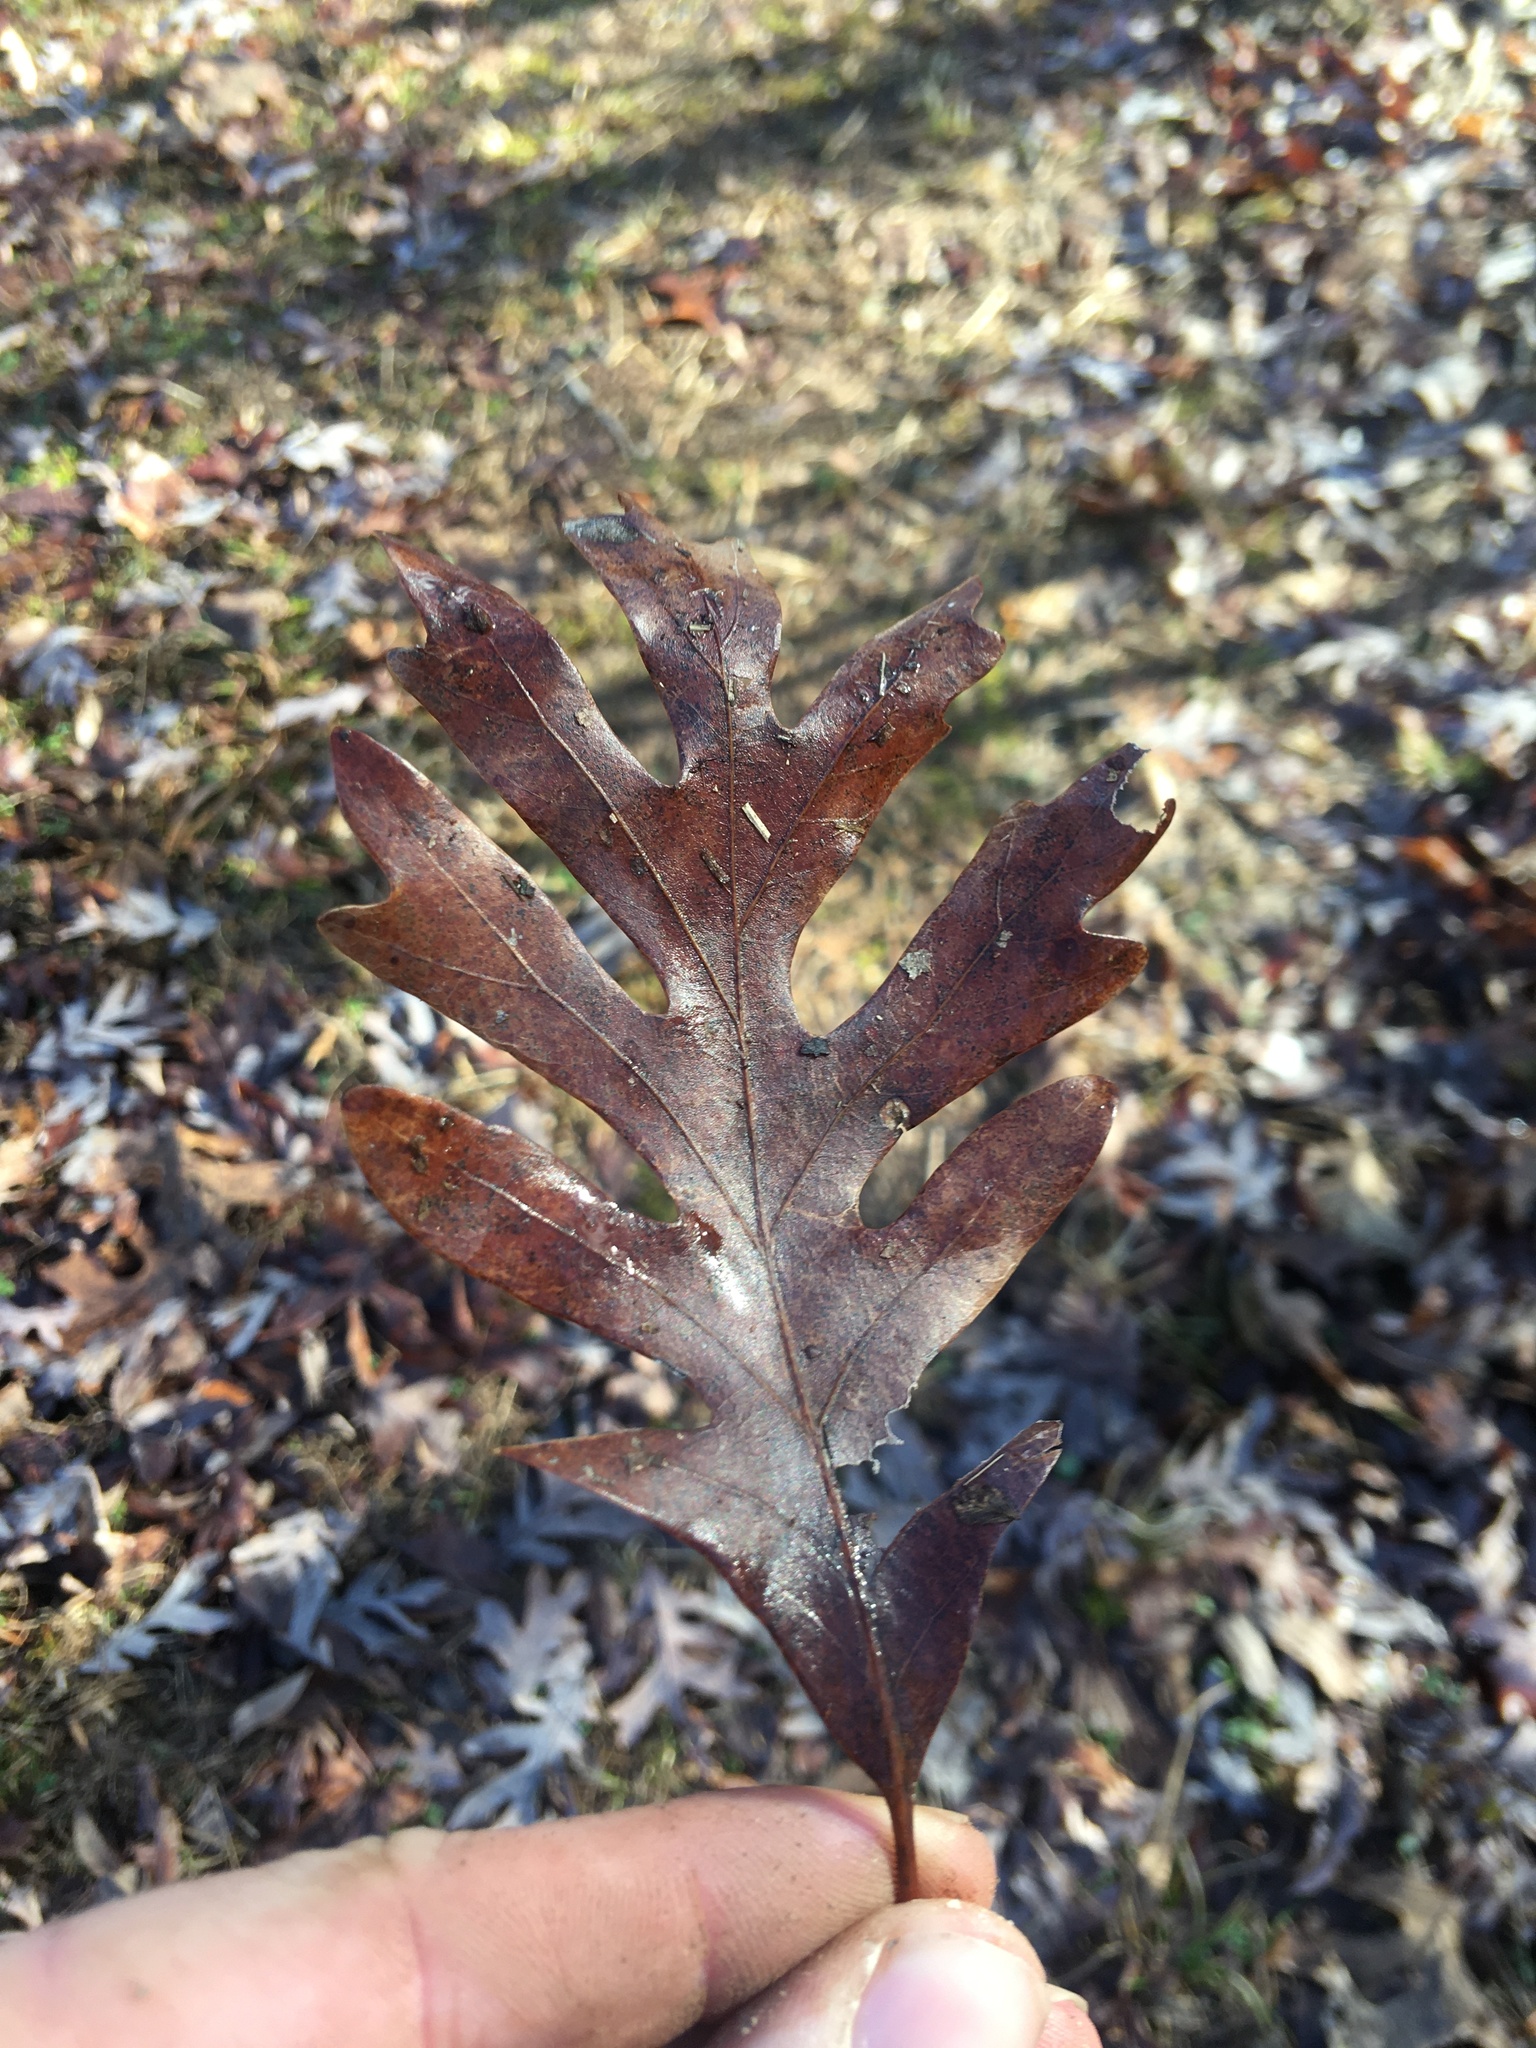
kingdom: Plantae
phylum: Tracheophyta
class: Magnoliopsida
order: Fagales
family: Fagaceae
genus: Quercus
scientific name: Quercus alba
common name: White oak
